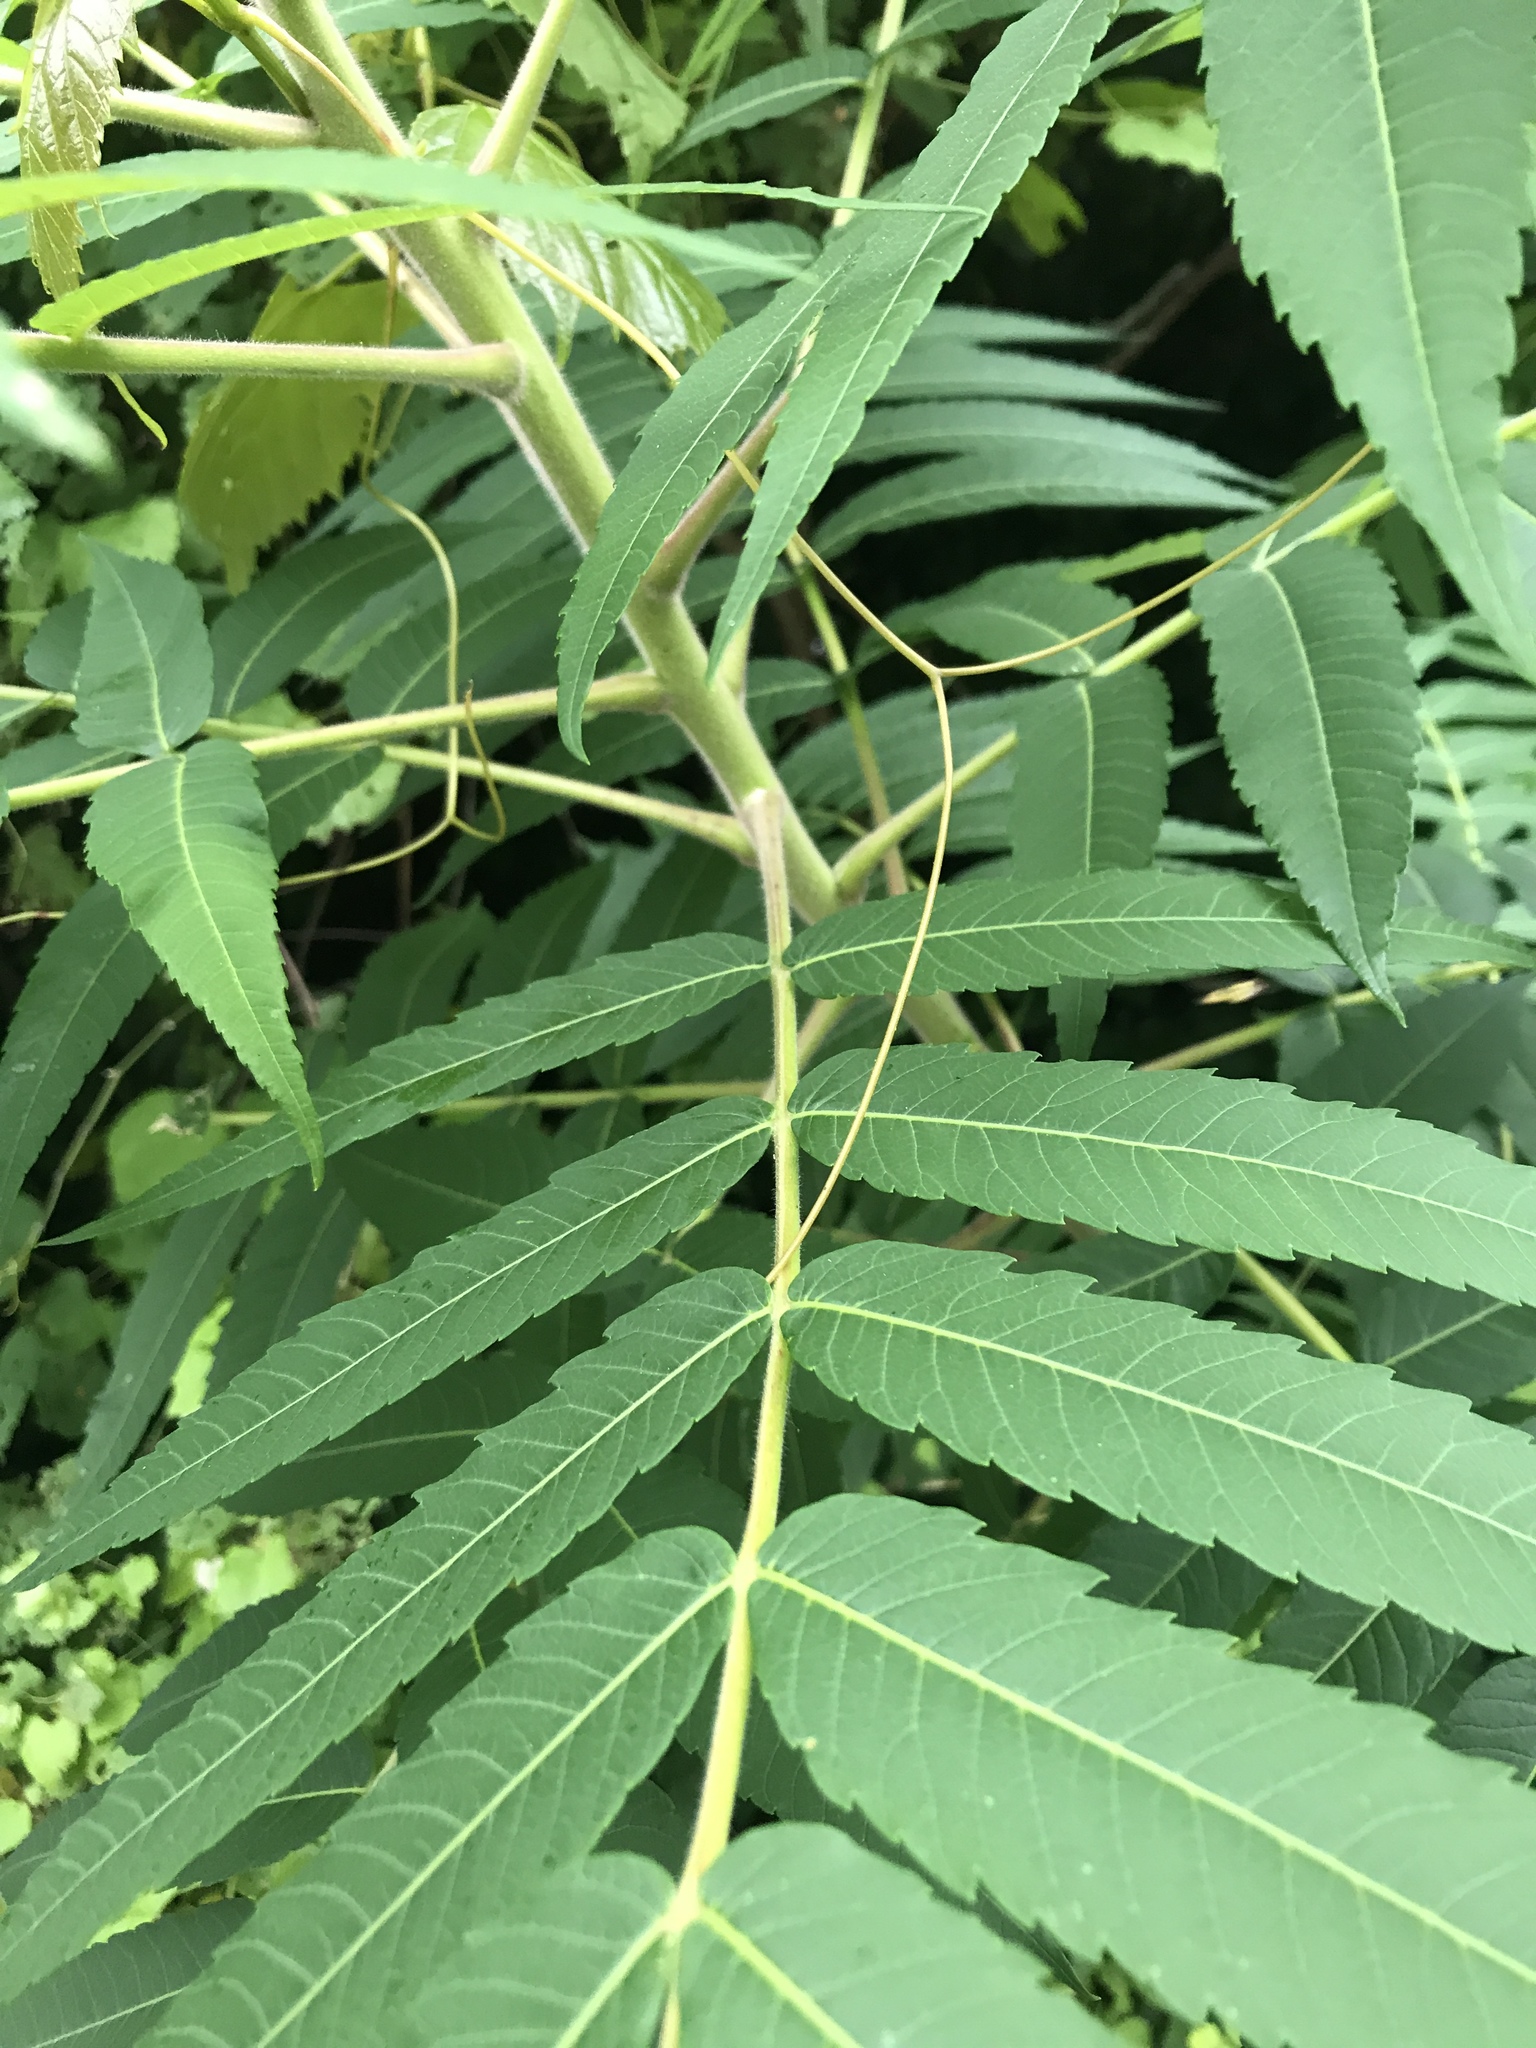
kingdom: Plantae
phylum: Tracheophyta
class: Magnoliopsida
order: Sapindales
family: Anacardiaceae
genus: Rhus
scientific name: Rhus typhina
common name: Staghorn sumac
